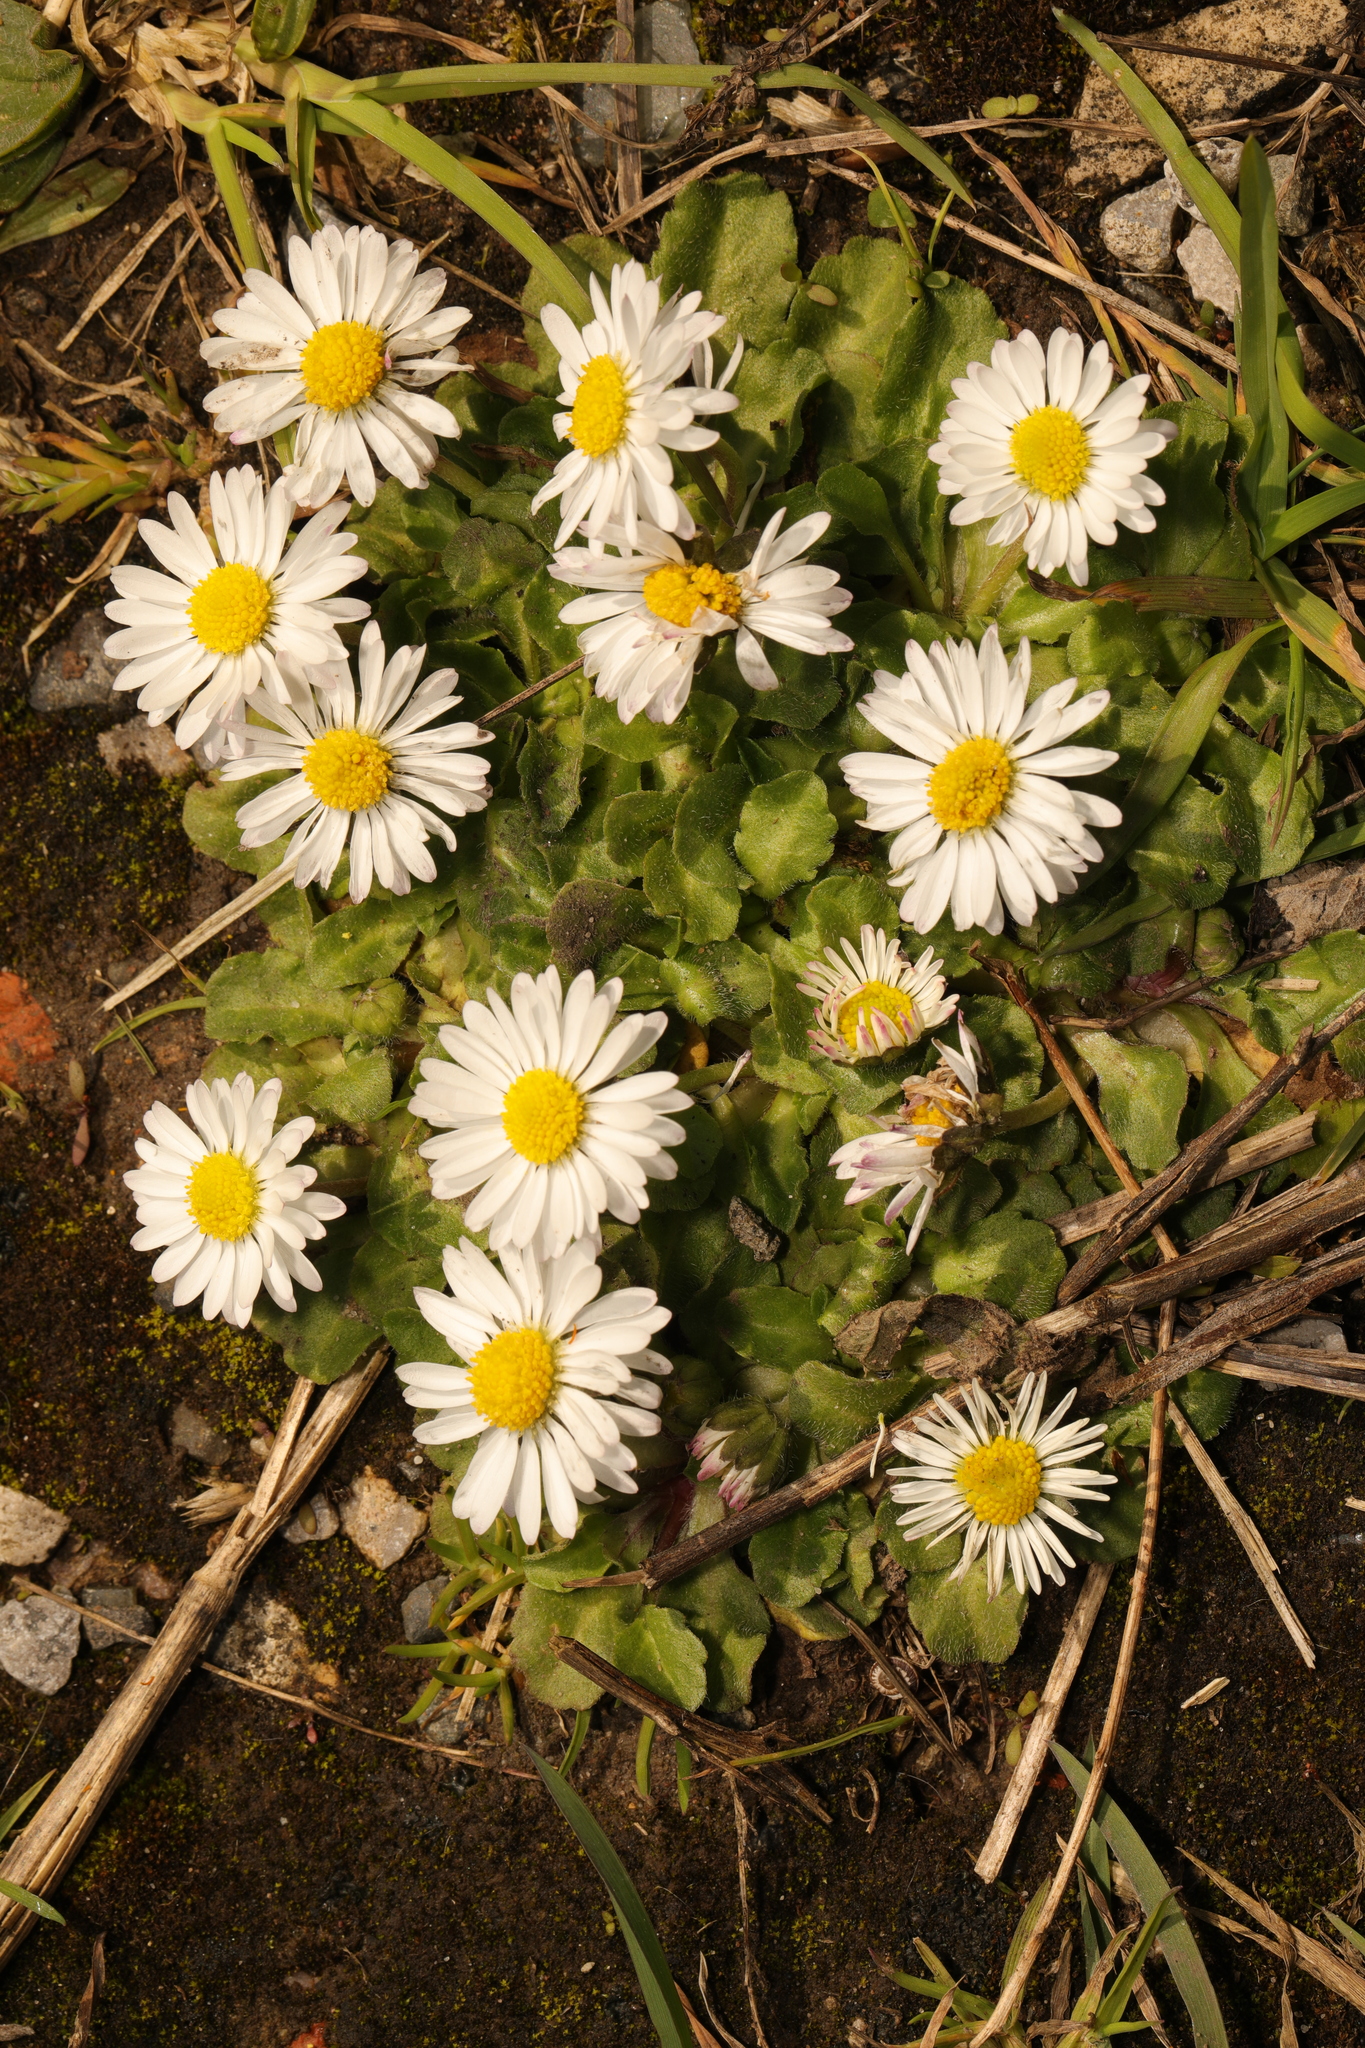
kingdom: Plantae
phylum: Tracheophyta
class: Magnoliopsida
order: Asterales
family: Asteraceae
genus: Bellis
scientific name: Bellis perennis
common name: Lawndaisy
